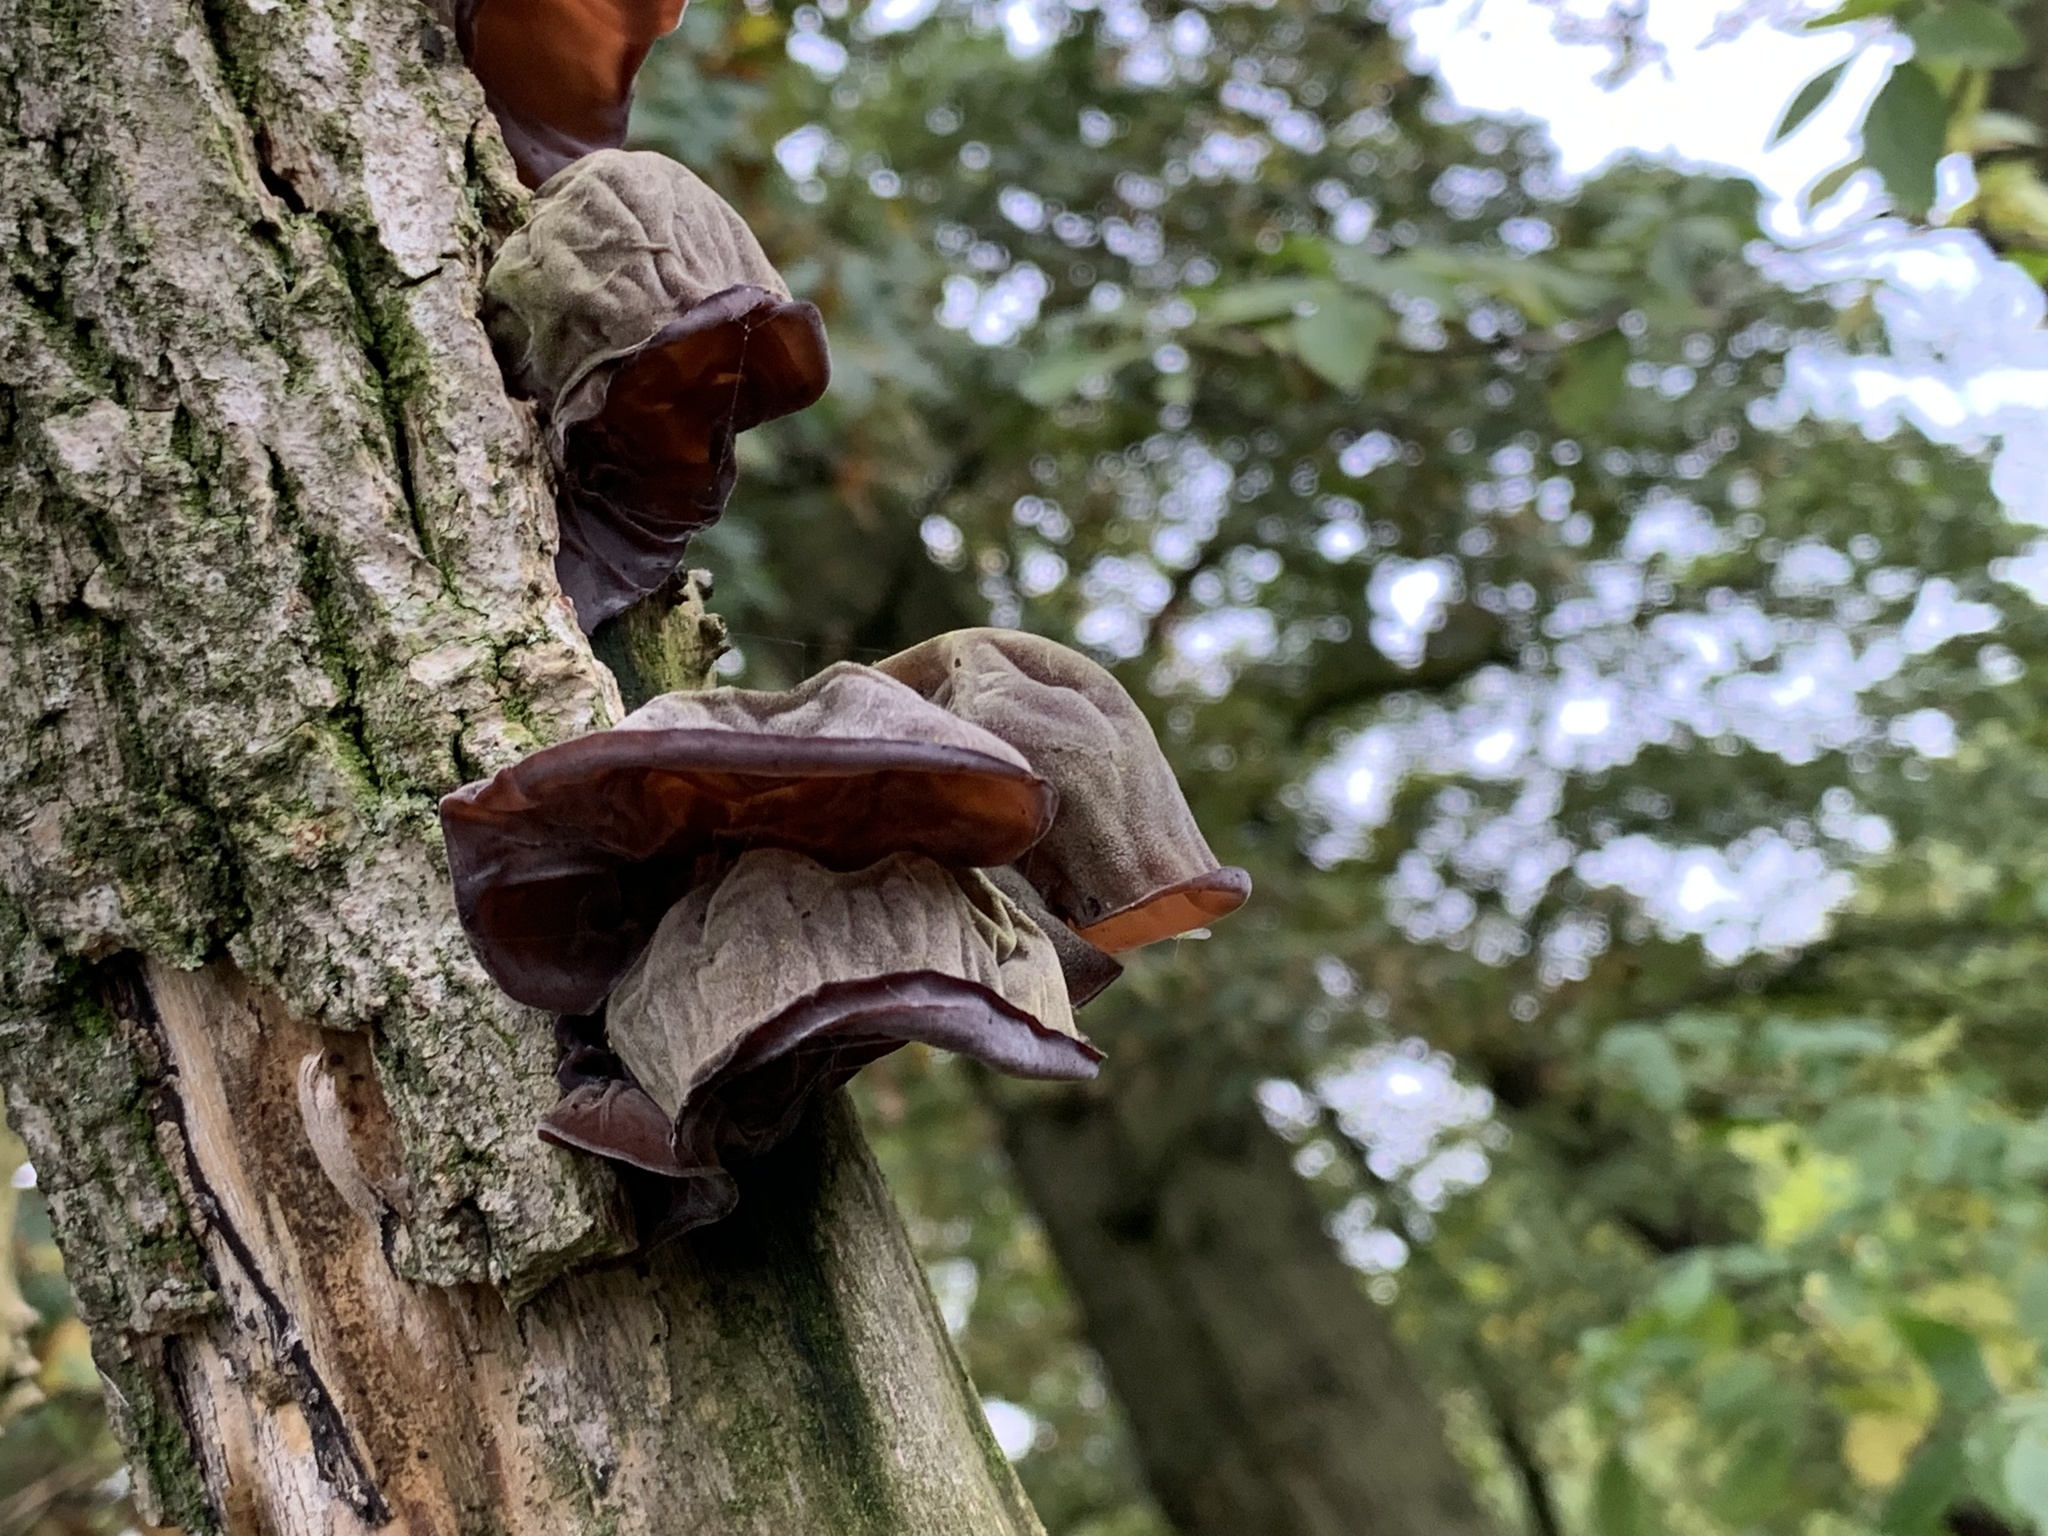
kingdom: Fungi
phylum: Basidiomycota
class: Agaricomycetes
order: Auriculariales
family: Auriculariaceae
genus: Auricularia
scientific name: Auricularia auricula-judae
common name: Jelly ear
